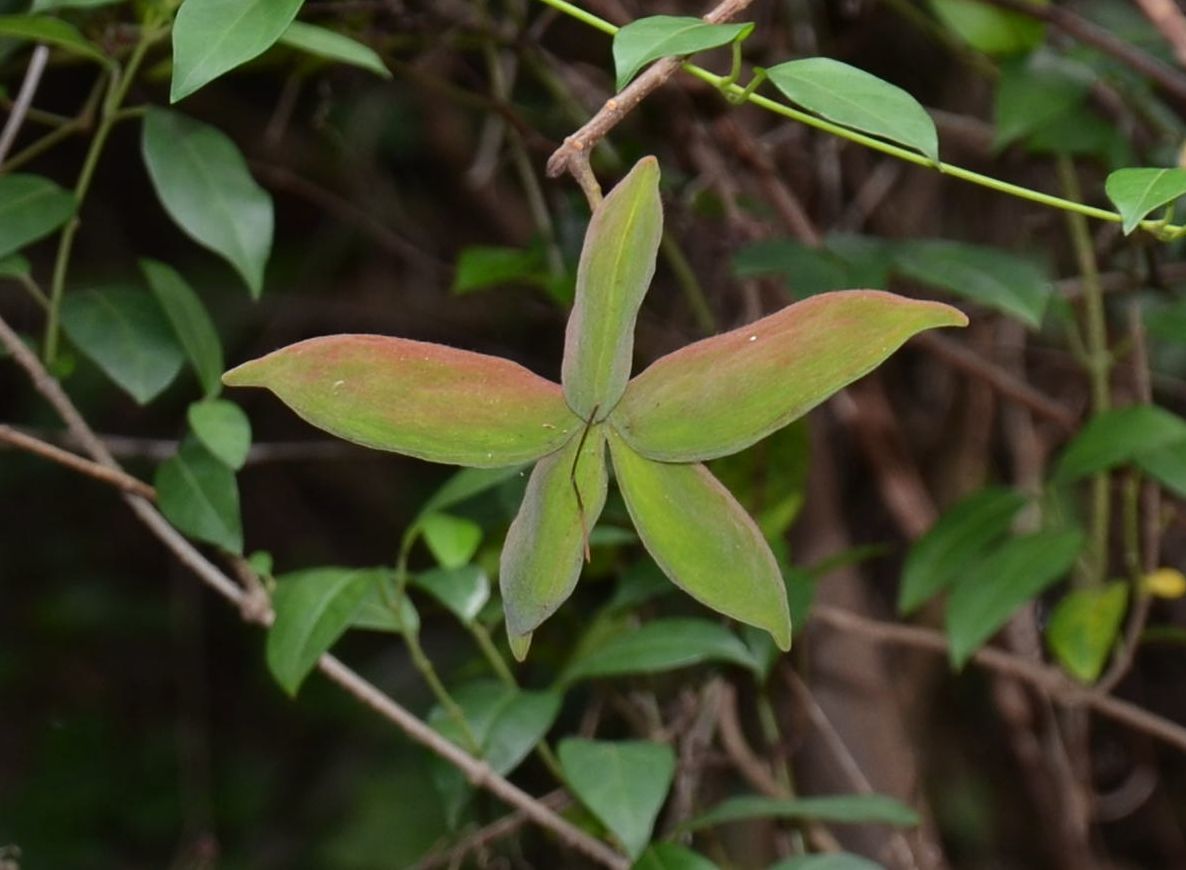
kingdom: Plantae
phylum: Tracheophyta
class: Magnoliopsida
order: Malvales
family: Malvaceae
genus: Sterculia
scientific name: Sterculia lanceolata
